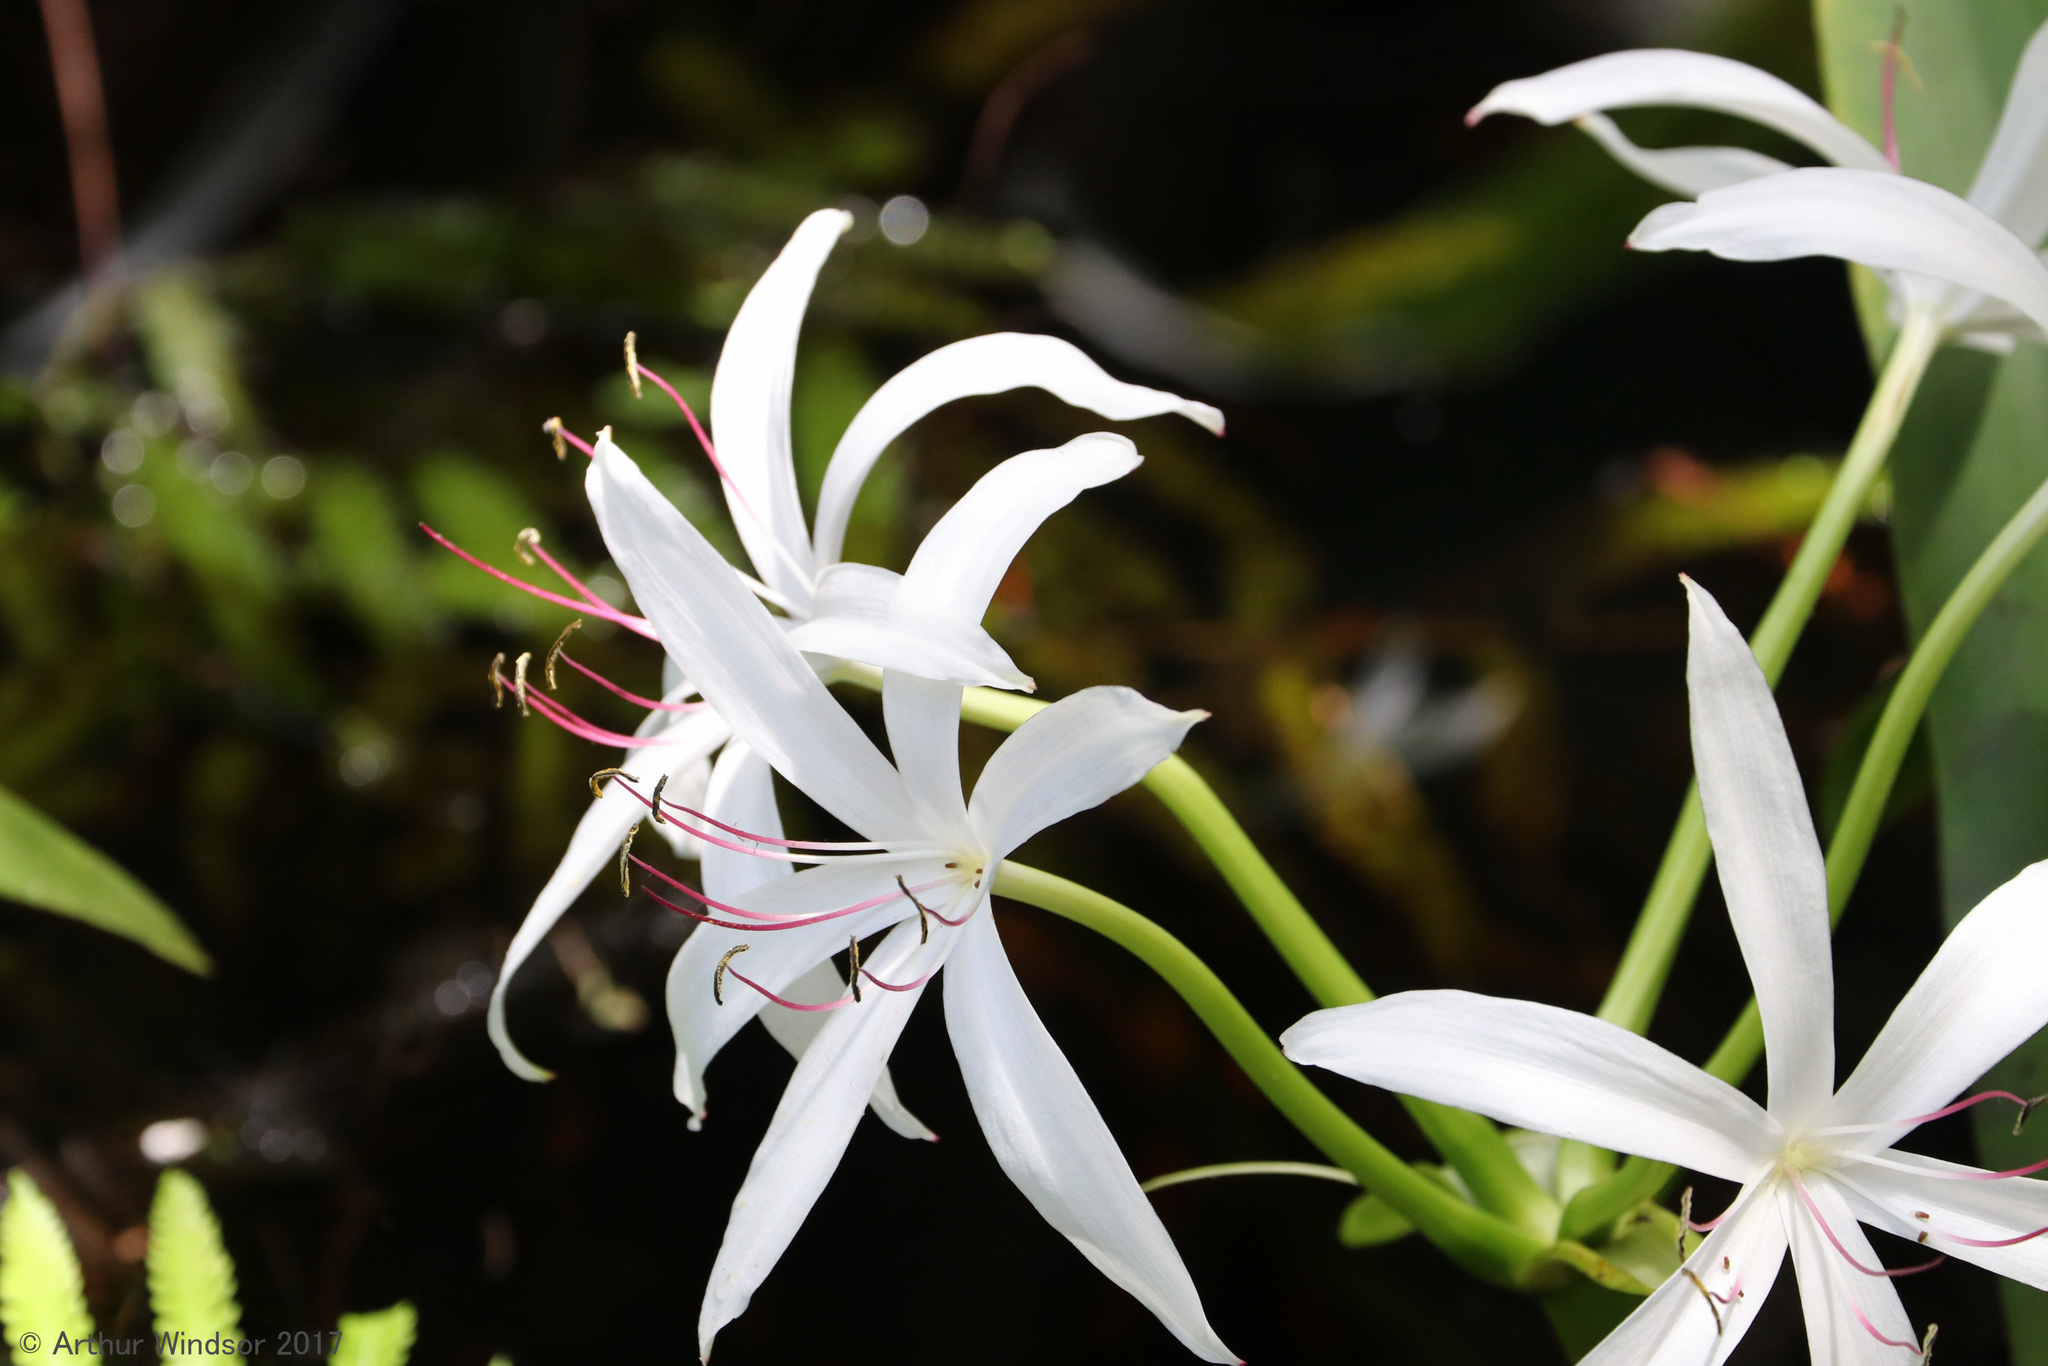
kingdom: Plantae
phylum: Tracheophyta
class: Liliopsida
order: Asparagales
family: Amaryllidaceae
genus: Crinum
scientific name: Crinum americanum
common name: Florida swamp-lily
